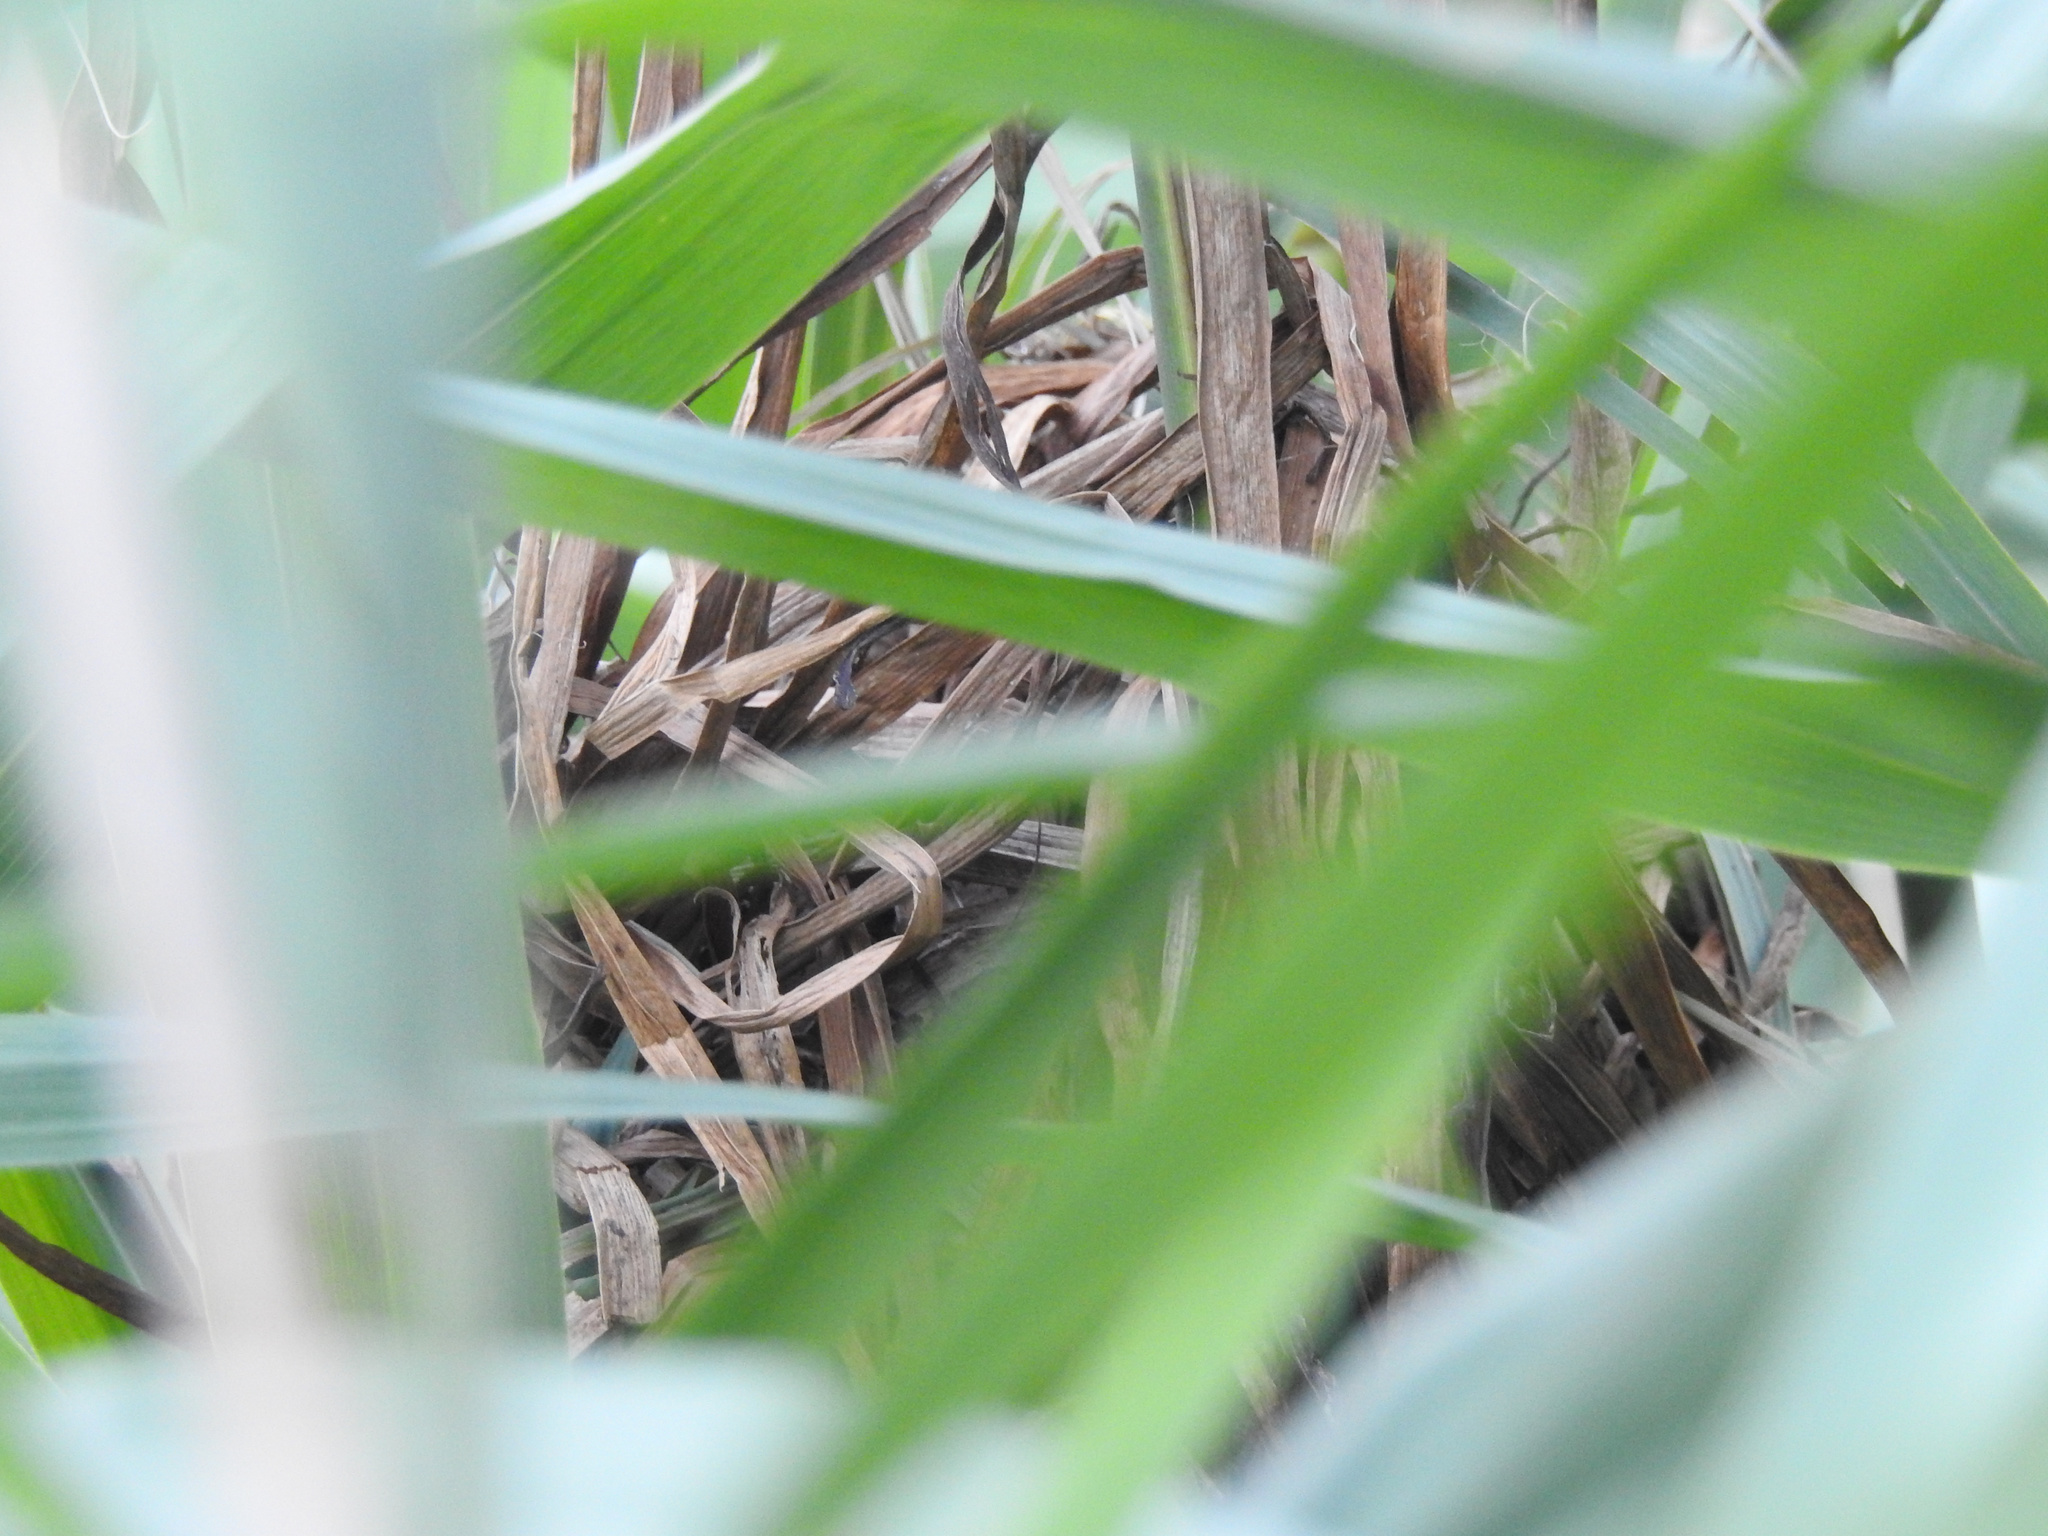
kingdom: Animalia
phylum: Chordata
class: Aves
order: Passeriformes
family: Troglodytidae
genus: Cistothorus
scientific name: Cistothorus palustris
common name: Marsh wren
